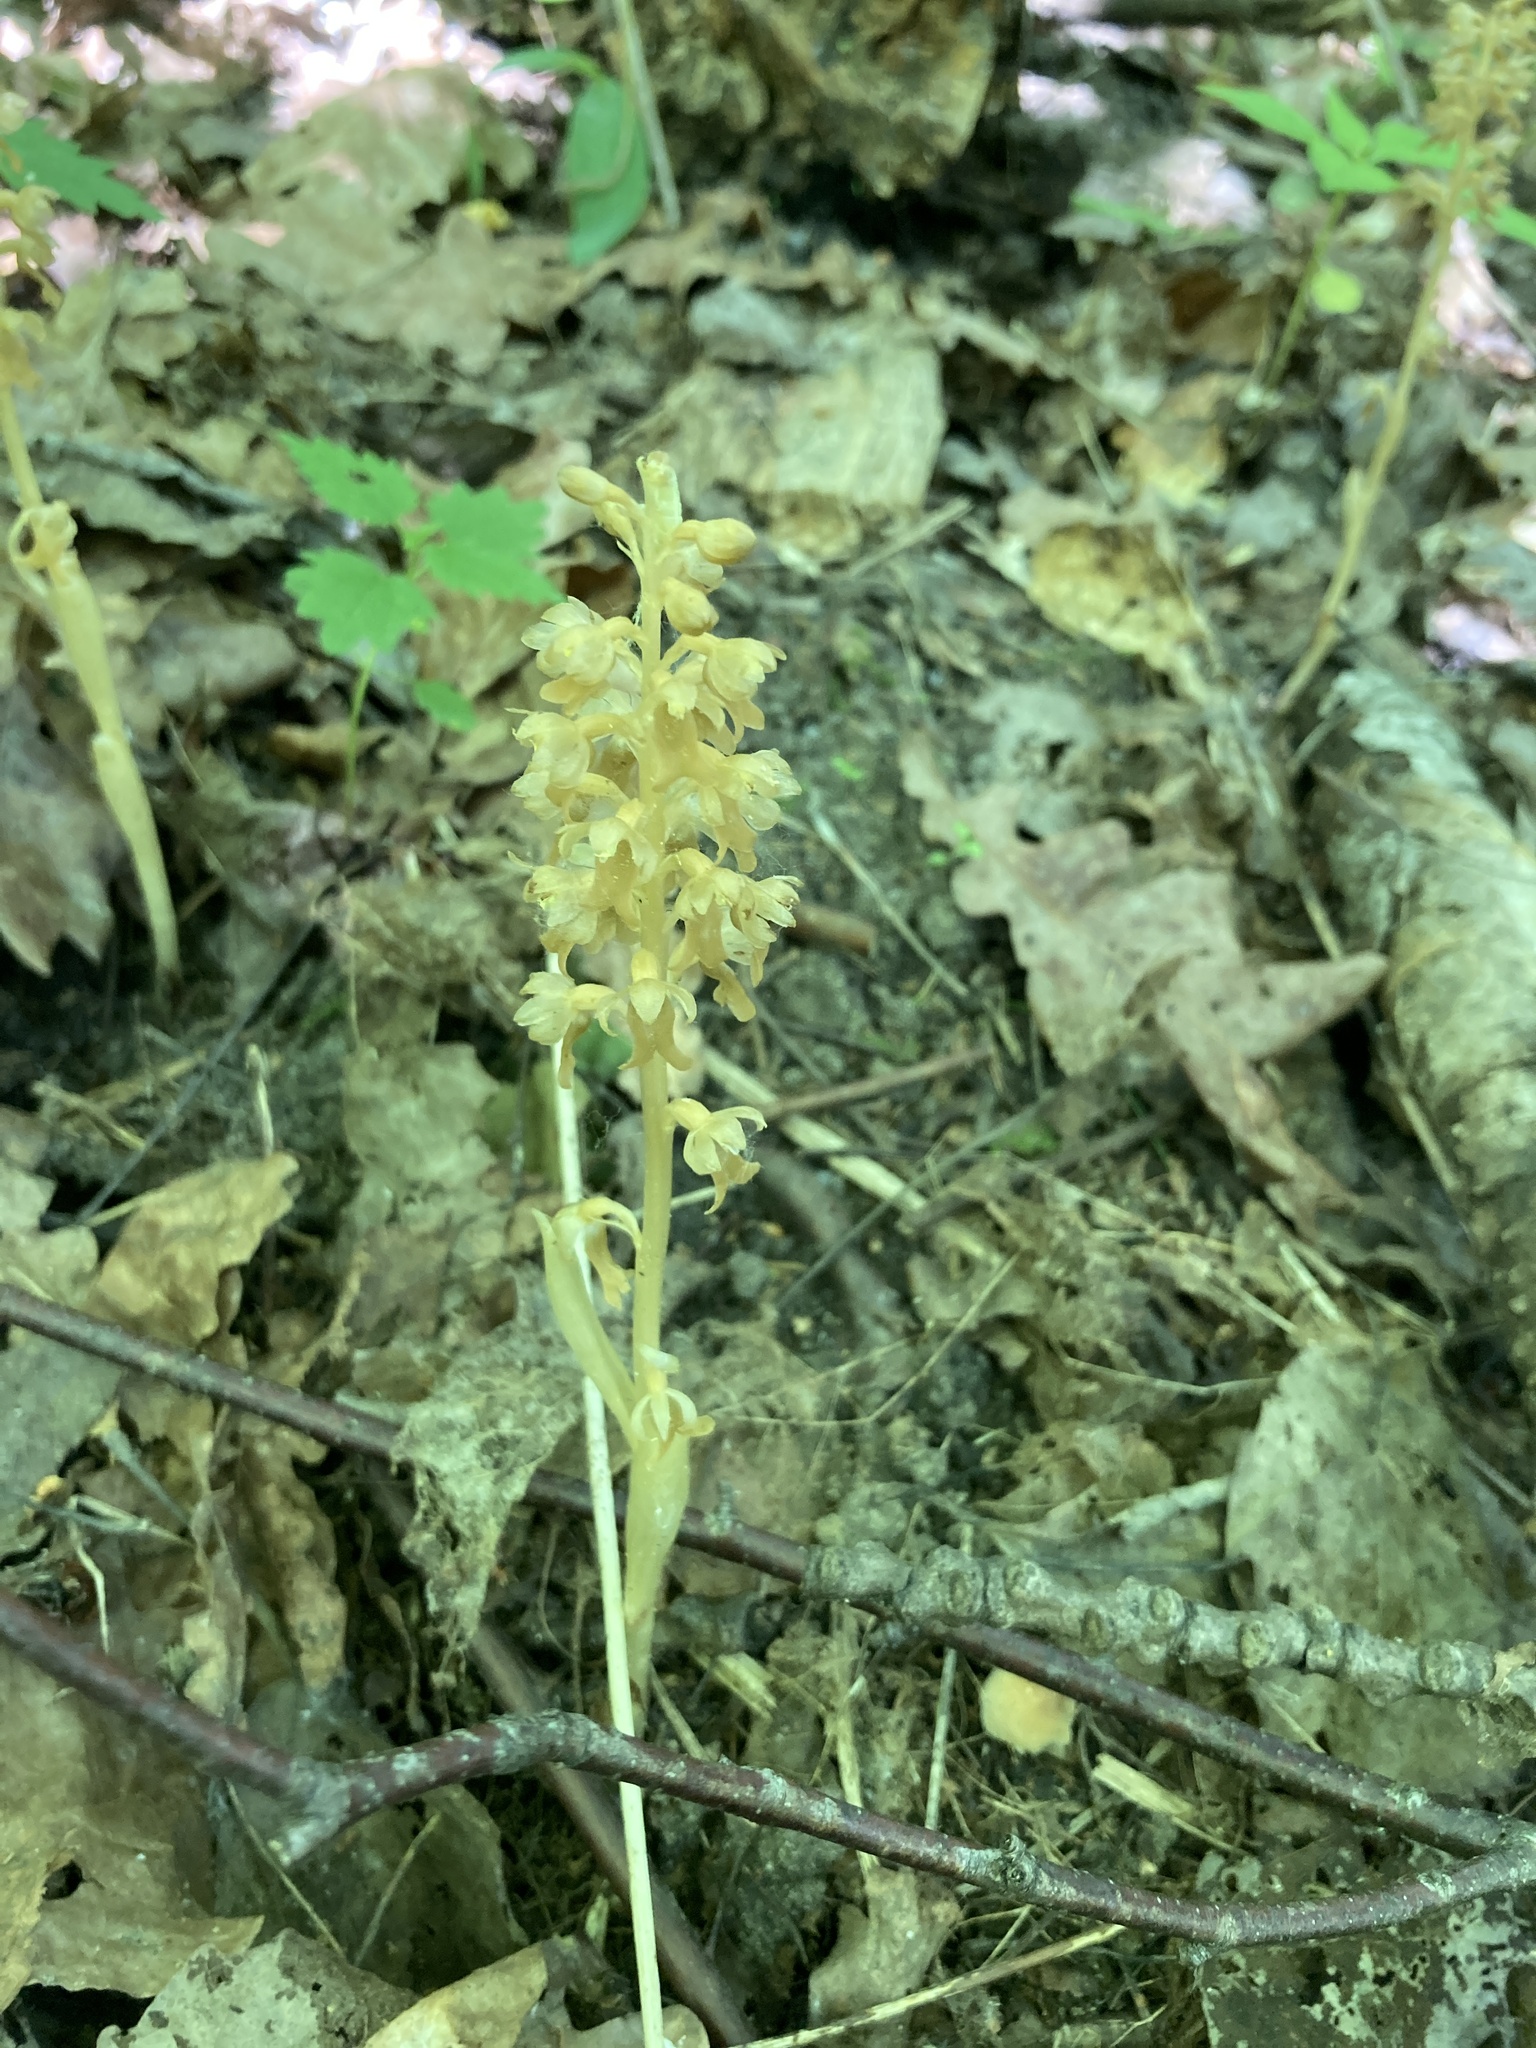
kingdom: Plantae
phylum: Tracheophyta
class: Liliopsida
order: Asparagales
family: Orchidaceae
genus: Neottia
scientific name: Neottia nidus-avis
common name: Bird's-nest orchid
